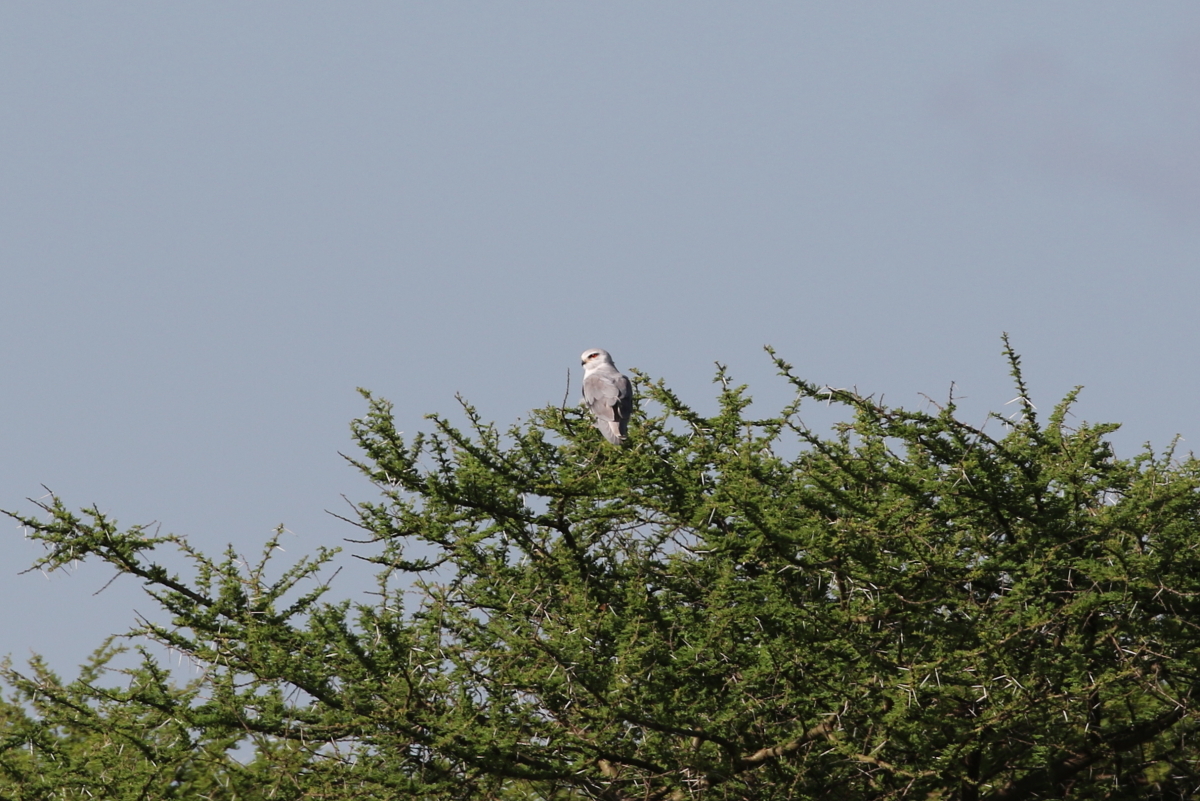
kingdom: Animalia
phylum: Chordata
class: Aves
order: Accipitriformes
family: Accipitridae
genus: Elanus
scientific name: Elanus caeruleus
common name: Black-winged kite
